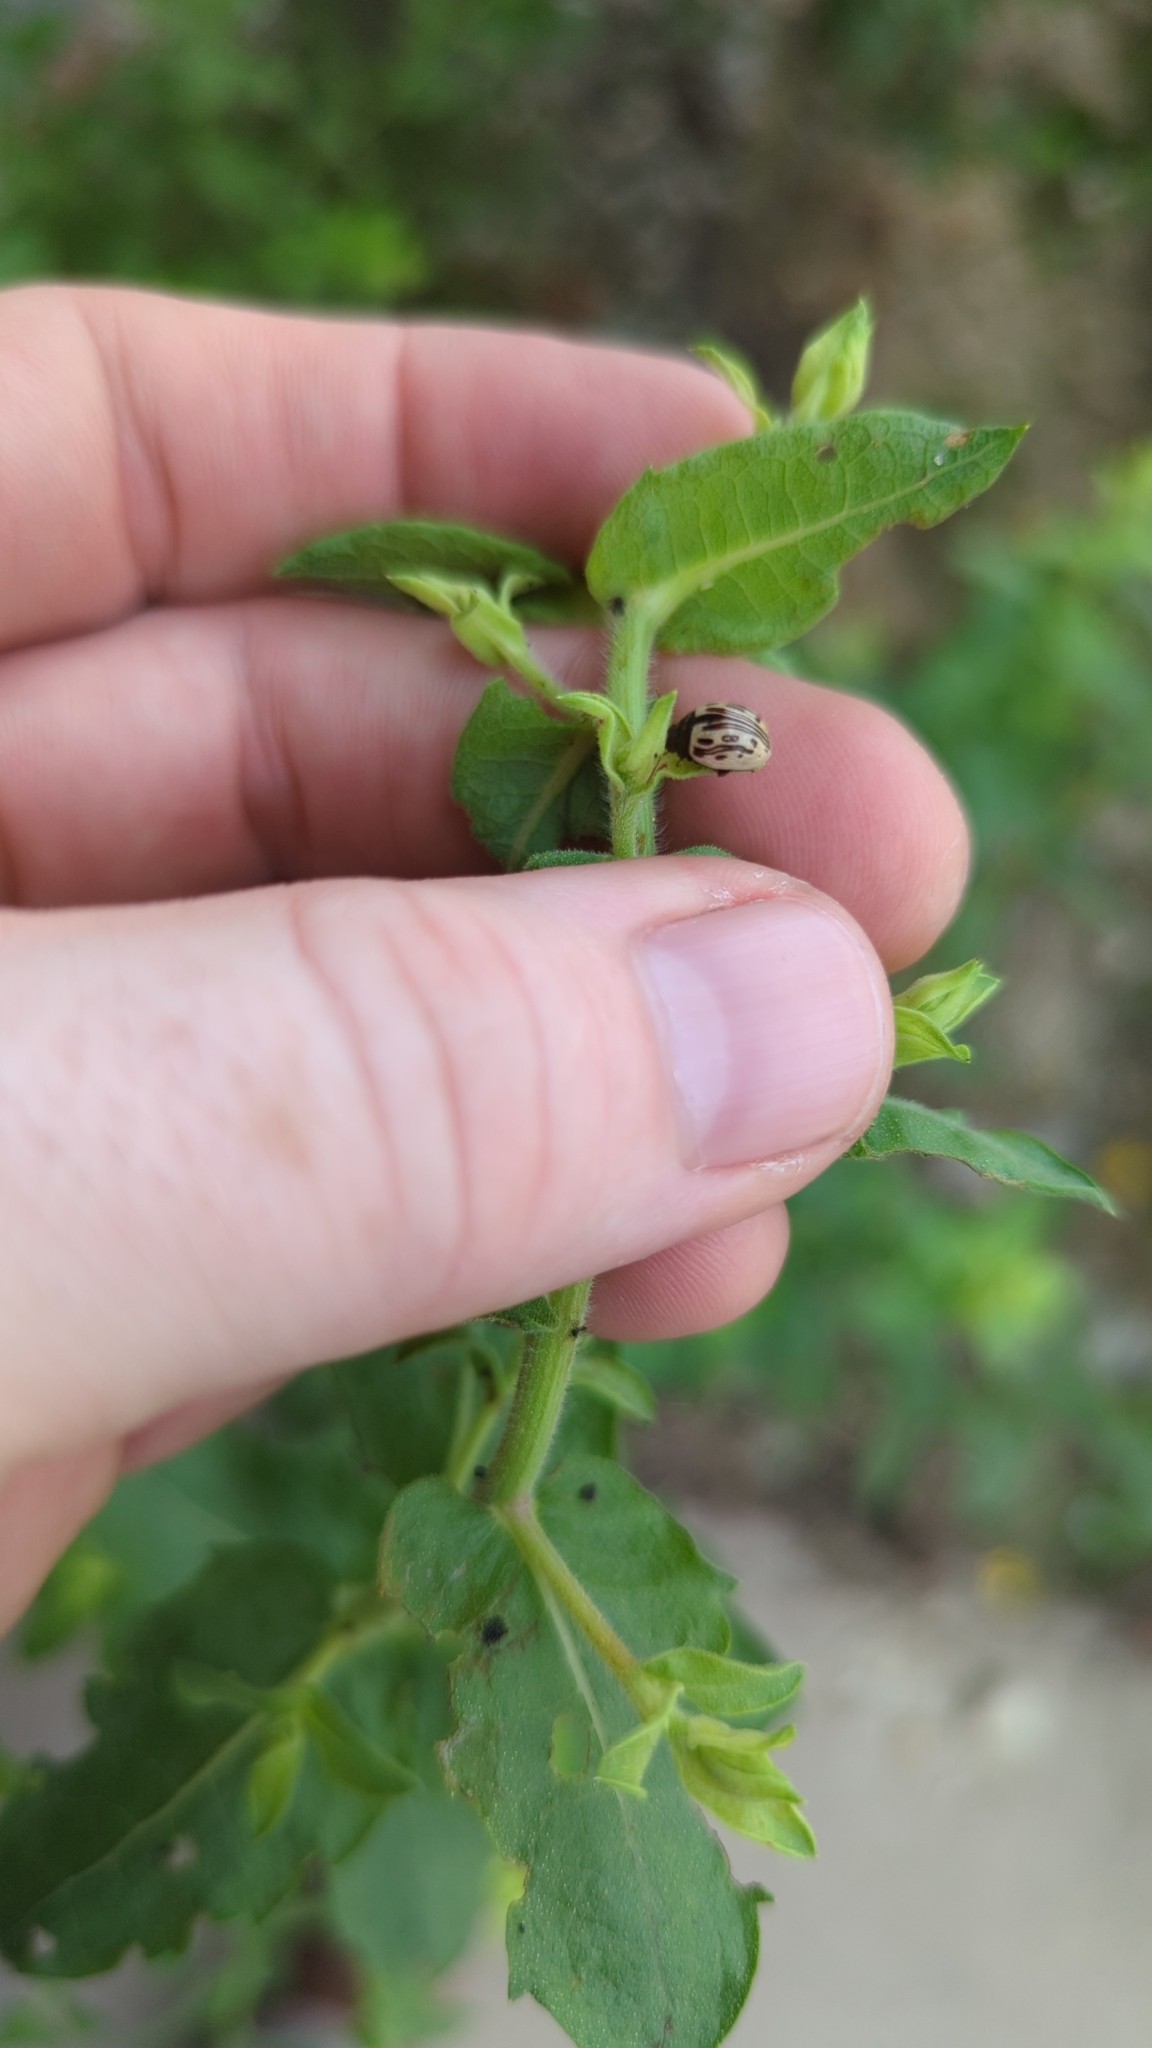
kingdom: Animalia
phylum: Arthropoda
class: Insecta
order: Coleoptera
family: Chrysomelidae
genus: Calligrapha
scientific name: Calligrapha
